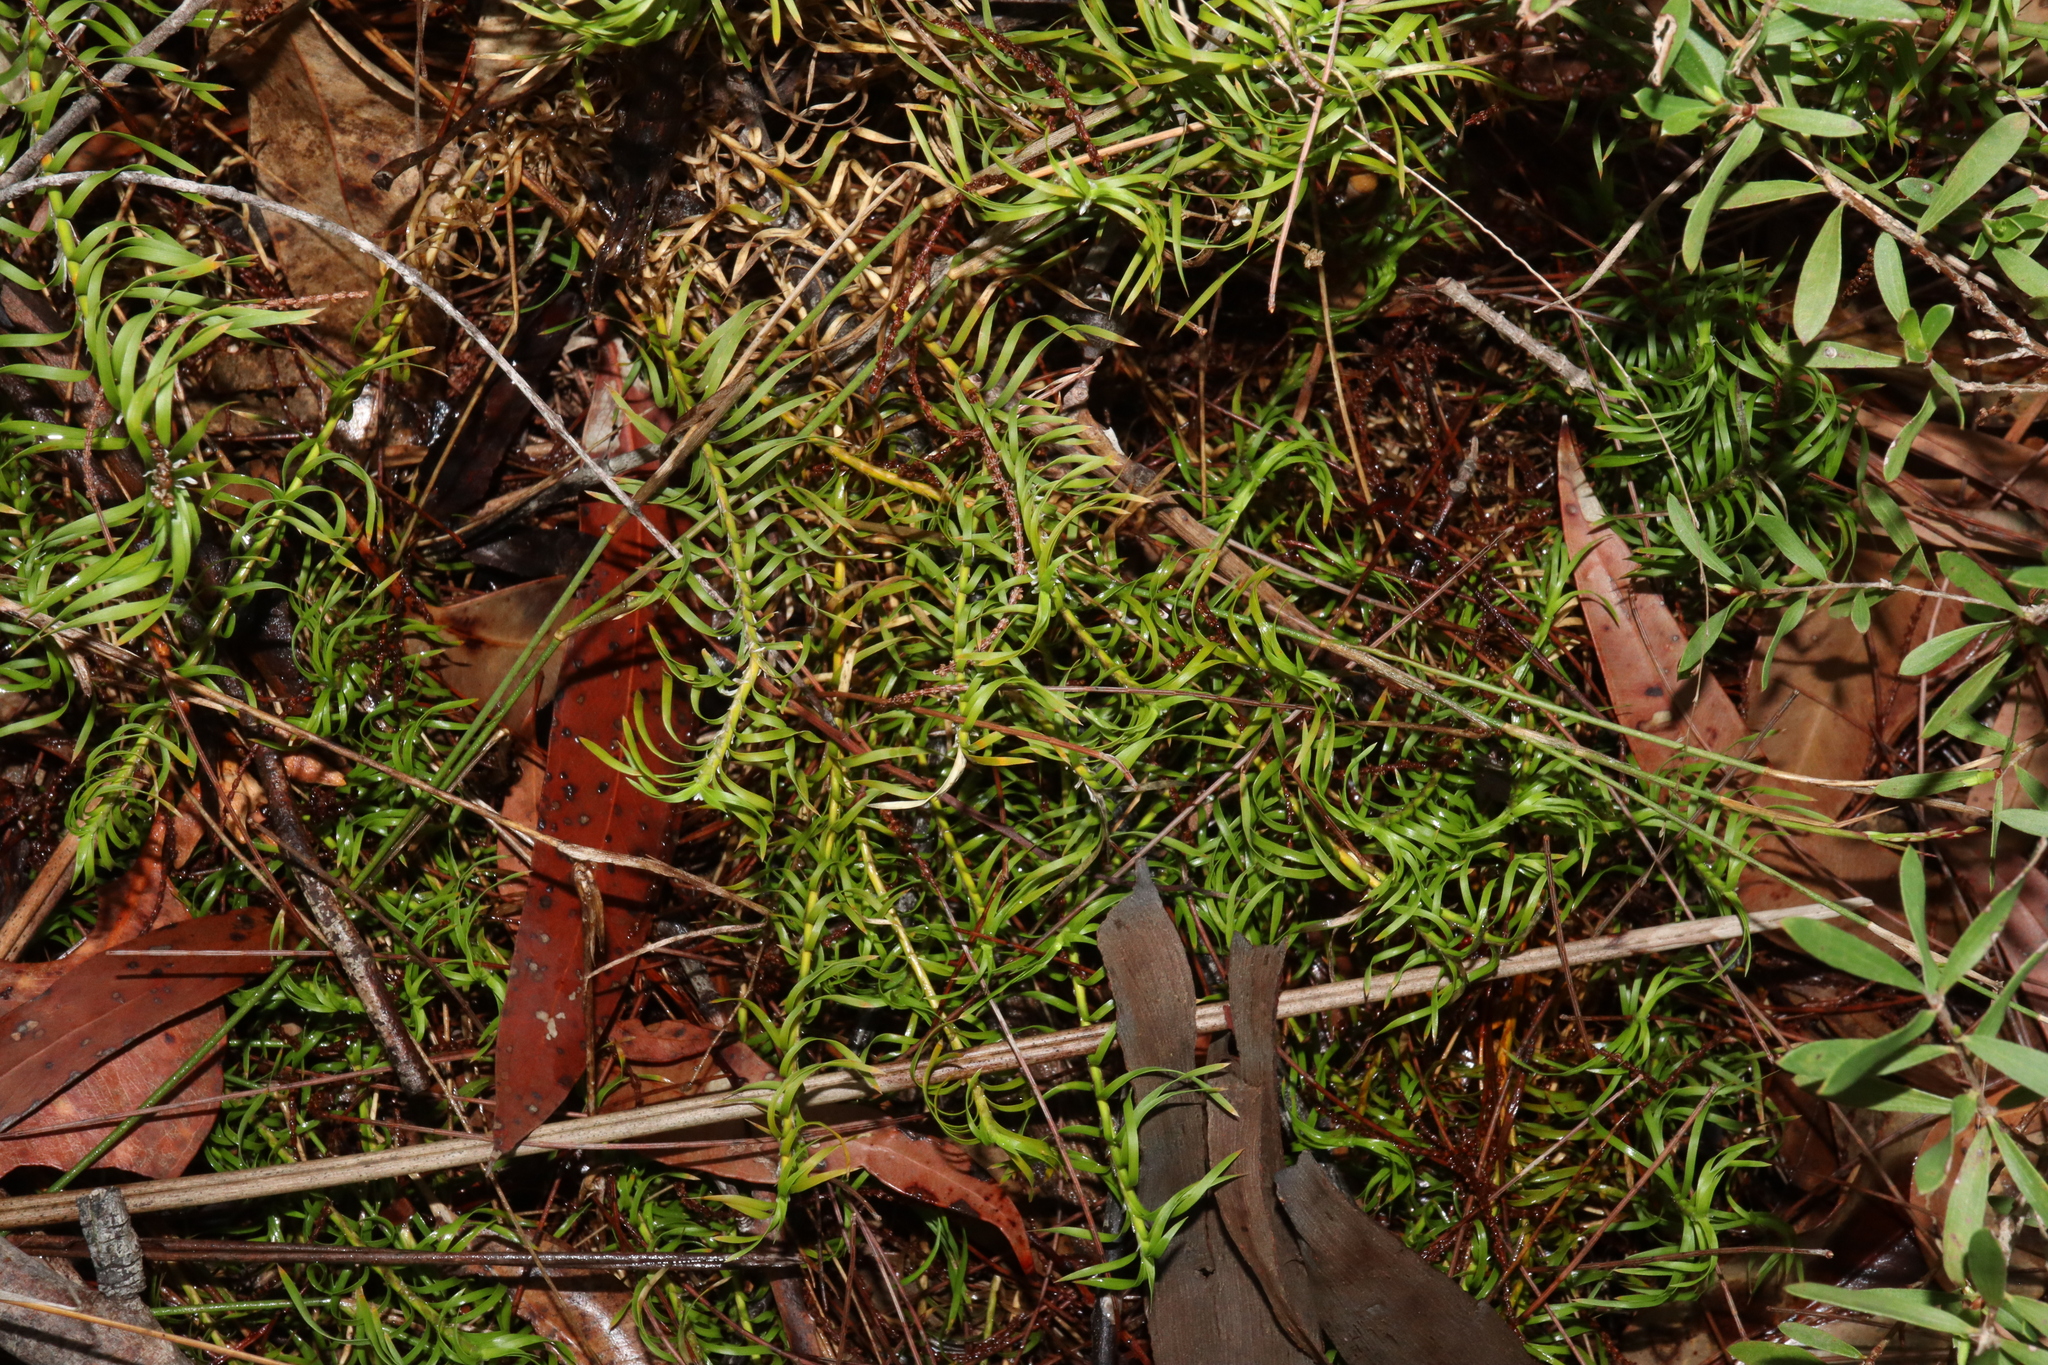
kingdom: Plantae
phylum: Tracheophyta
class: Liliopsida
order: Asparagales
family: Asparagaceae
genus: Lomandra
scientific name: Lomandra obliqua
